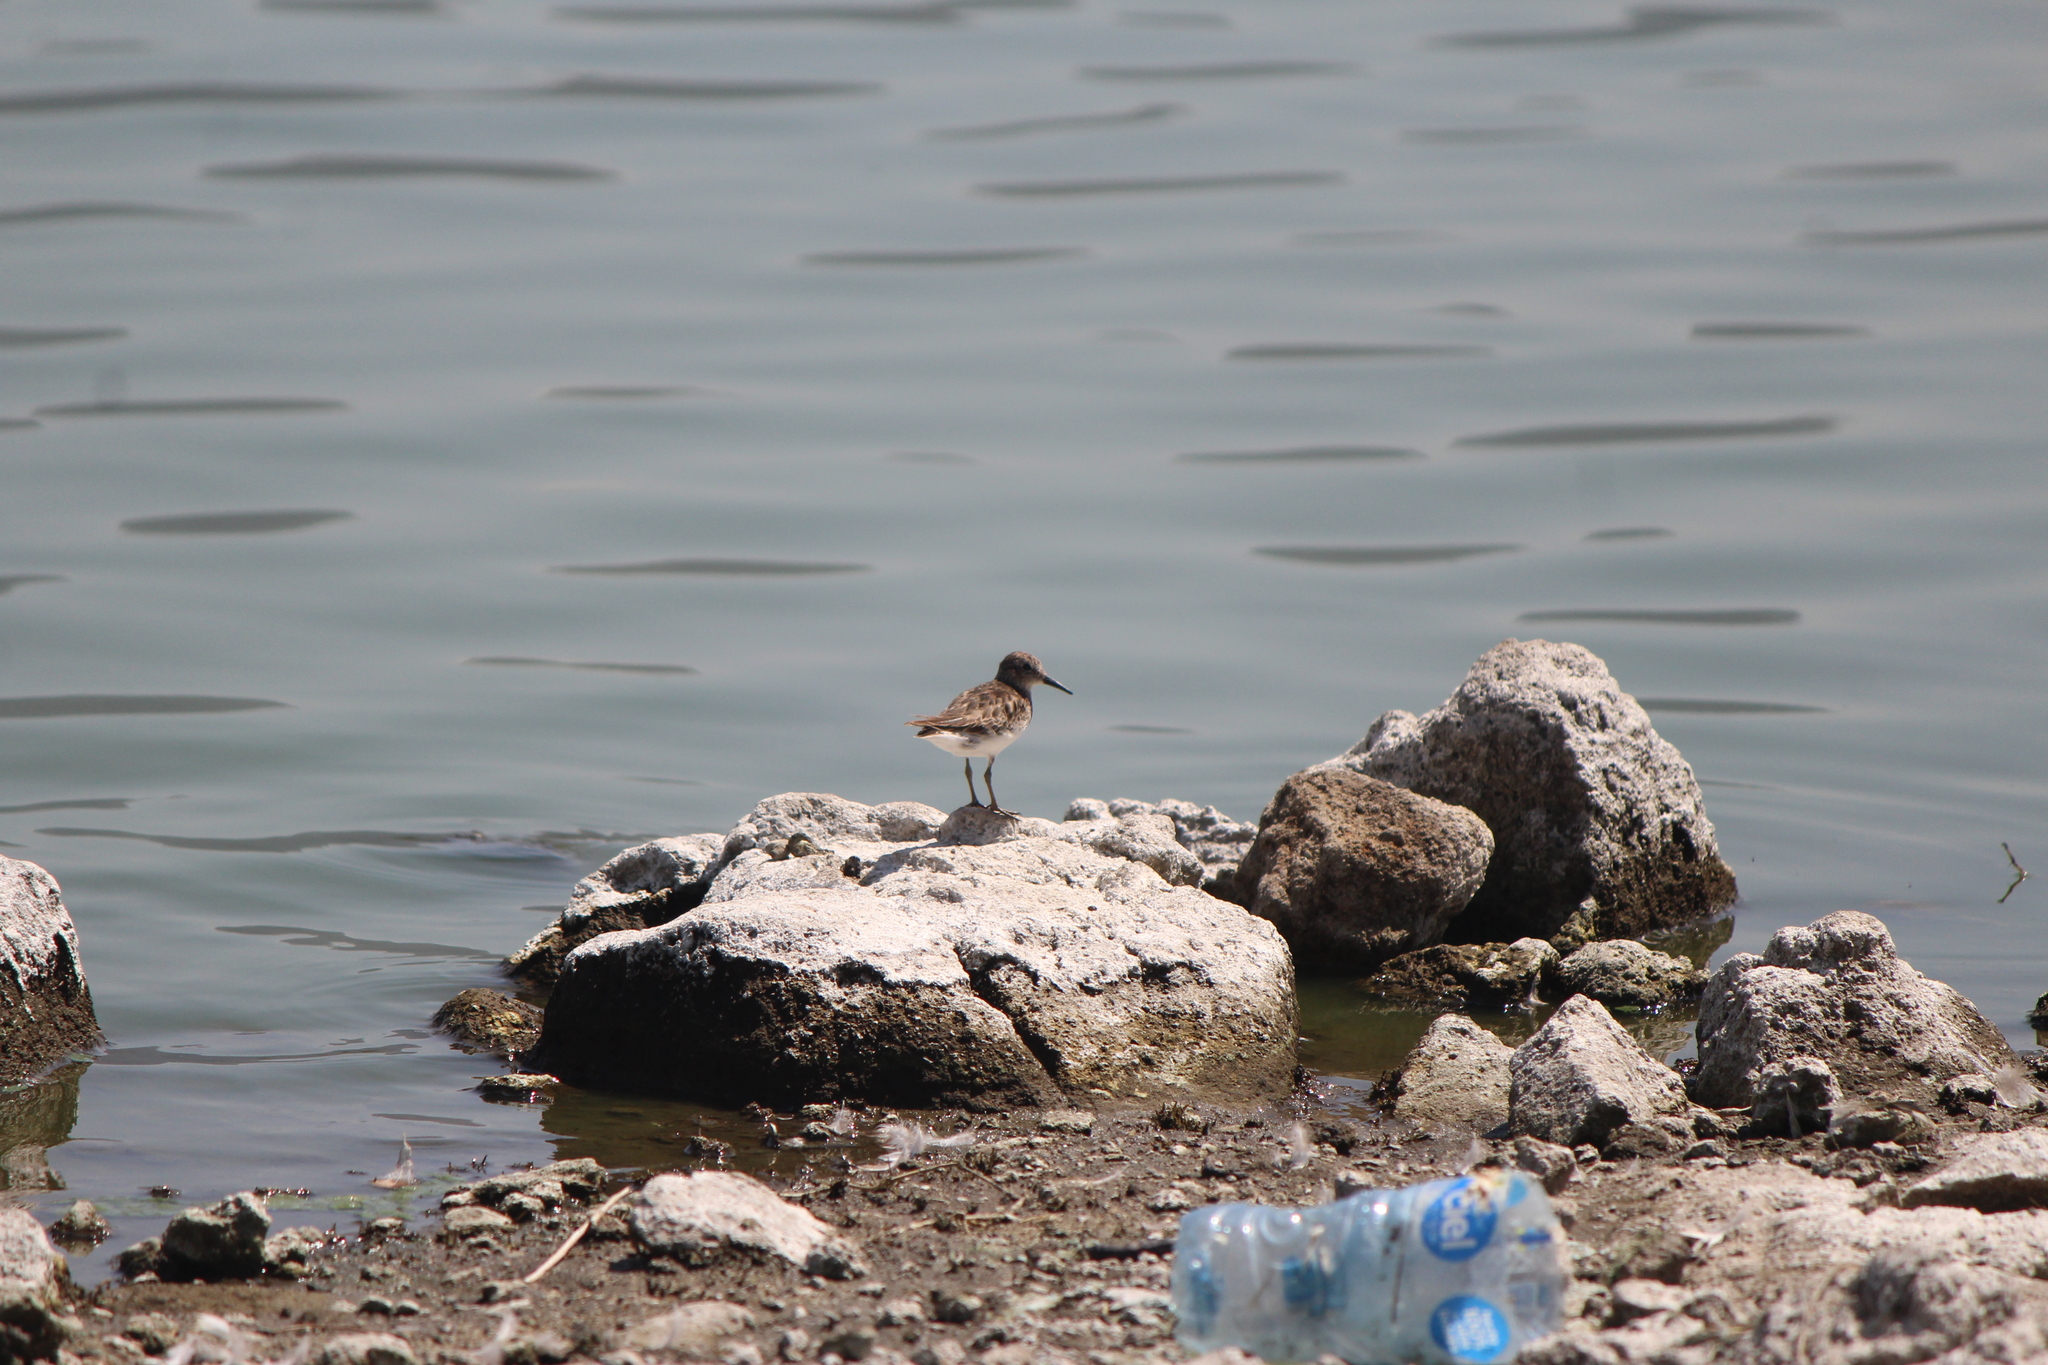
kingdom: Animalia
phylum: Chordata
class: Aves
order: Charadriiformes
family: Scolopacidae
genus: Calidris
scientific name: Calidris minutilla
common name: Least sandpiper
